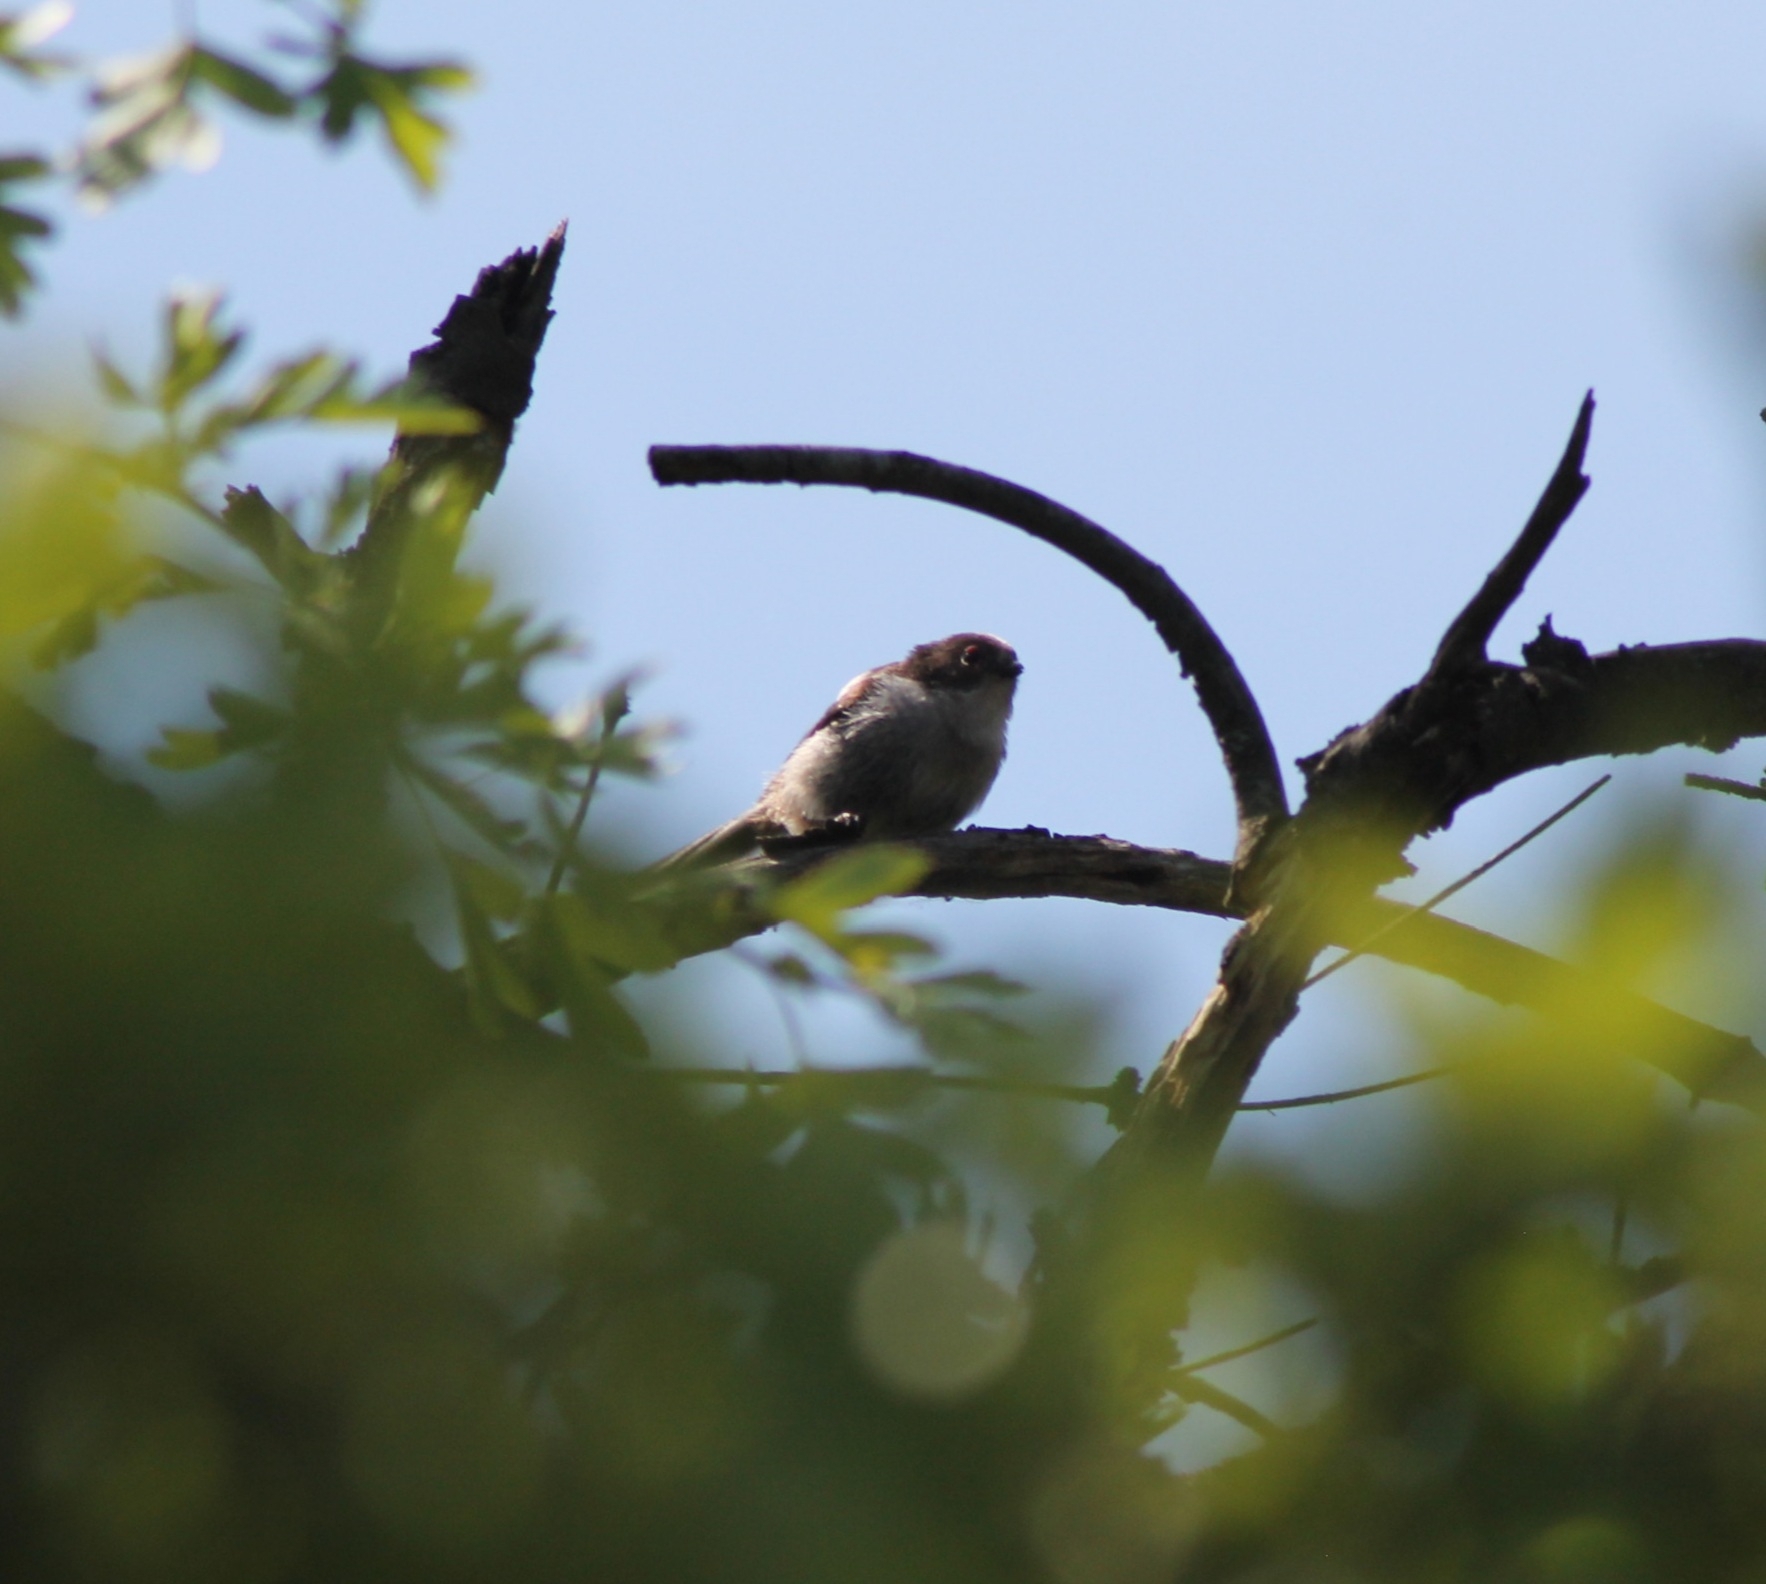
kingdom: Animalia
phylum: Chordata
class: Aves
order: Passeriformes
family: Aegithalidae
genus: Aegithalos
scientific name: Aegithalos caudatus
